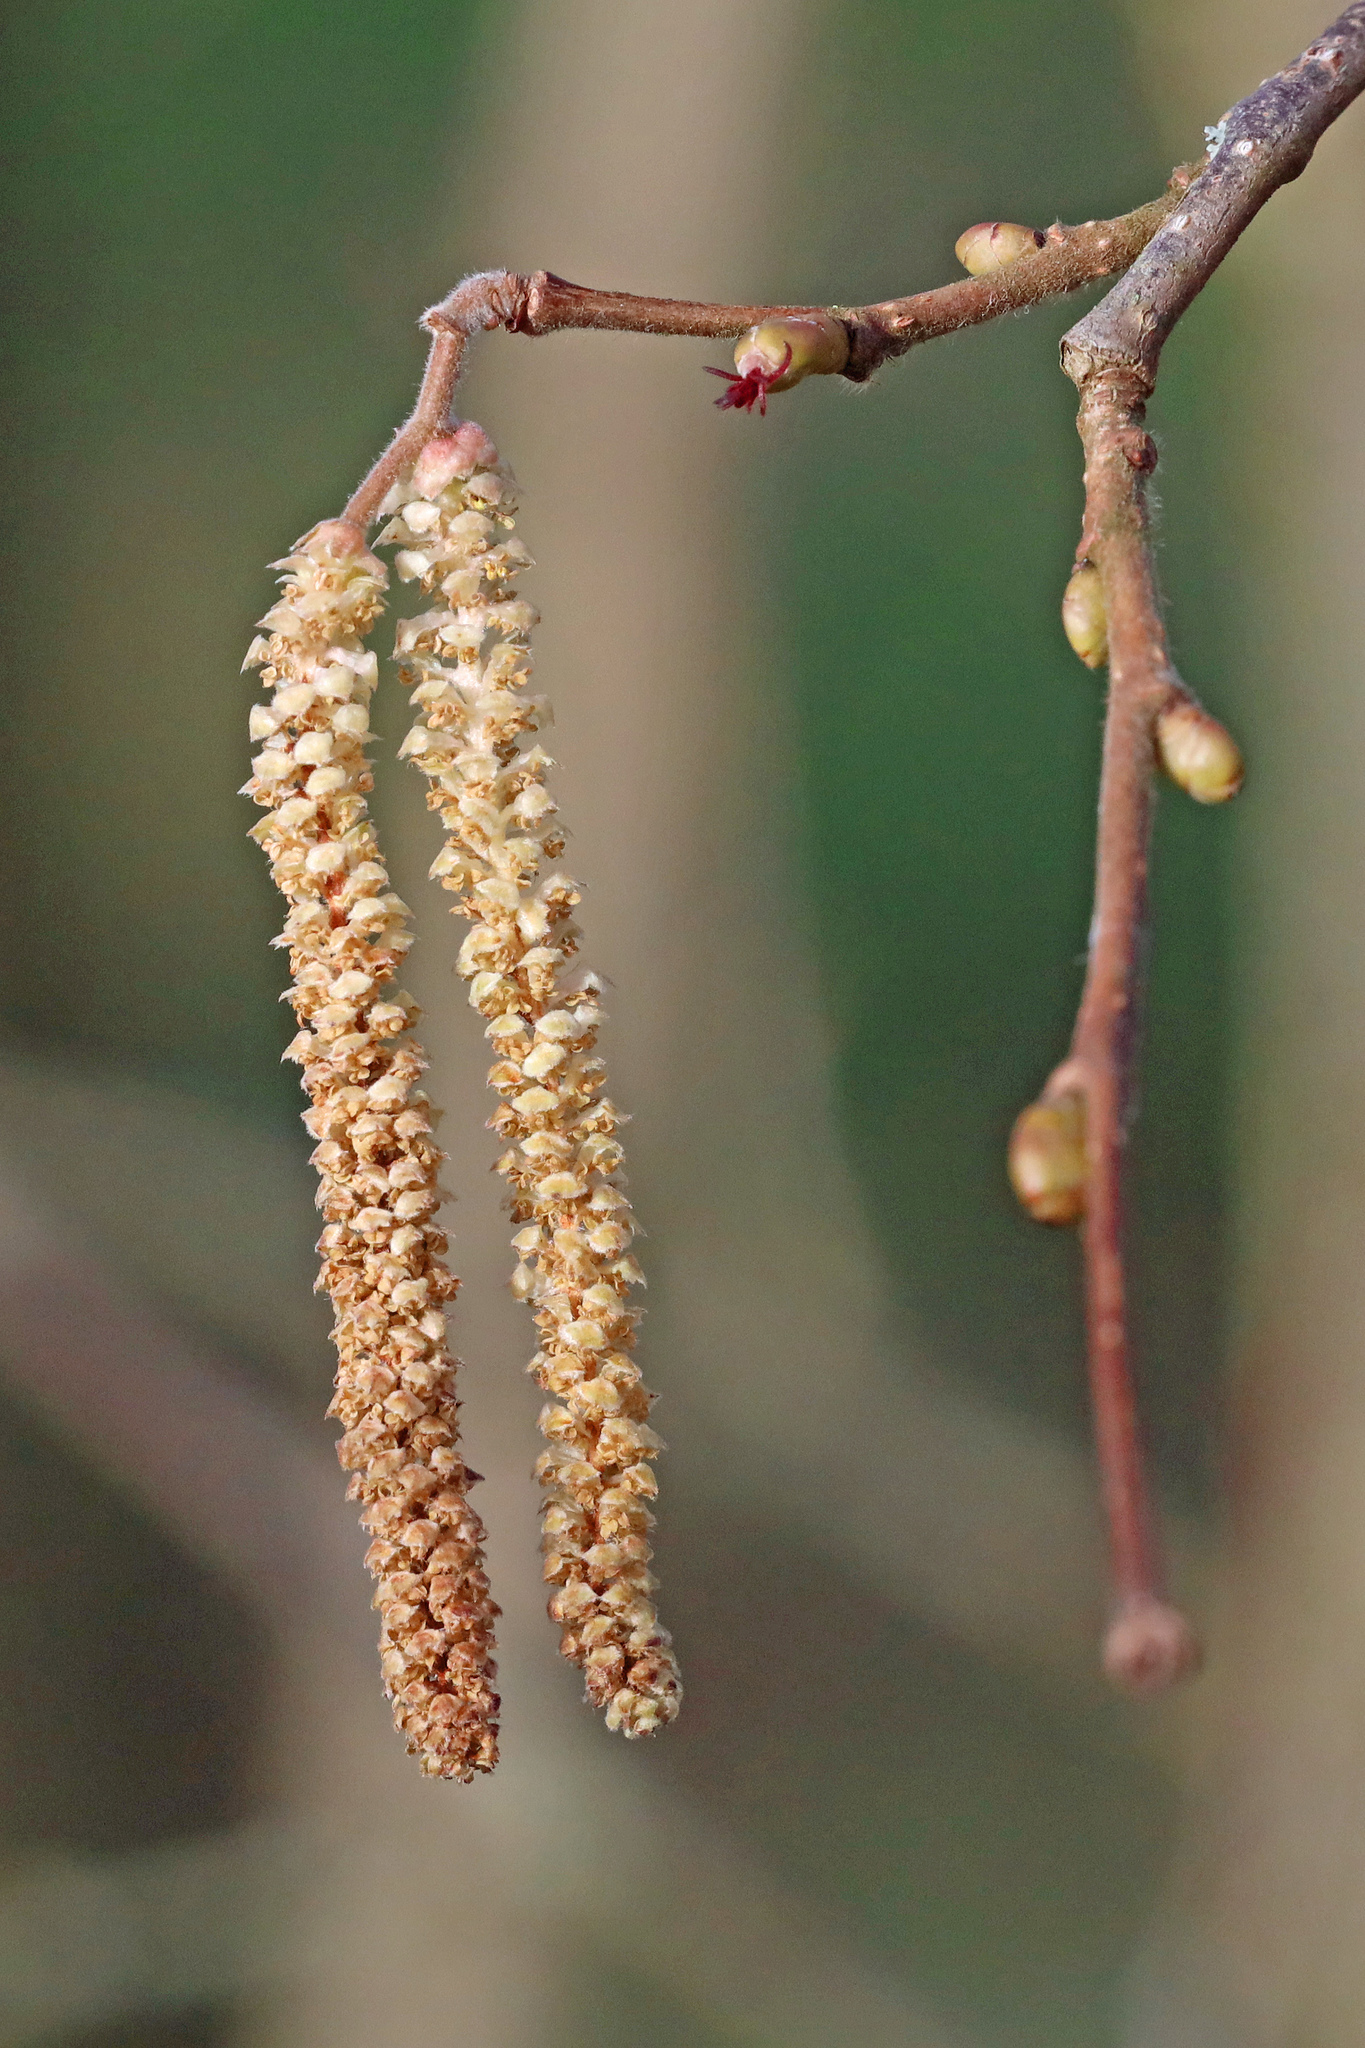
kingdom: Plantae
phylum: Tracheophyta
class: Magnoliopsida
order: Fagales
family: Betulaceae
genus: Corylus
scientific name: Corylus avellana
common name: European hazel
